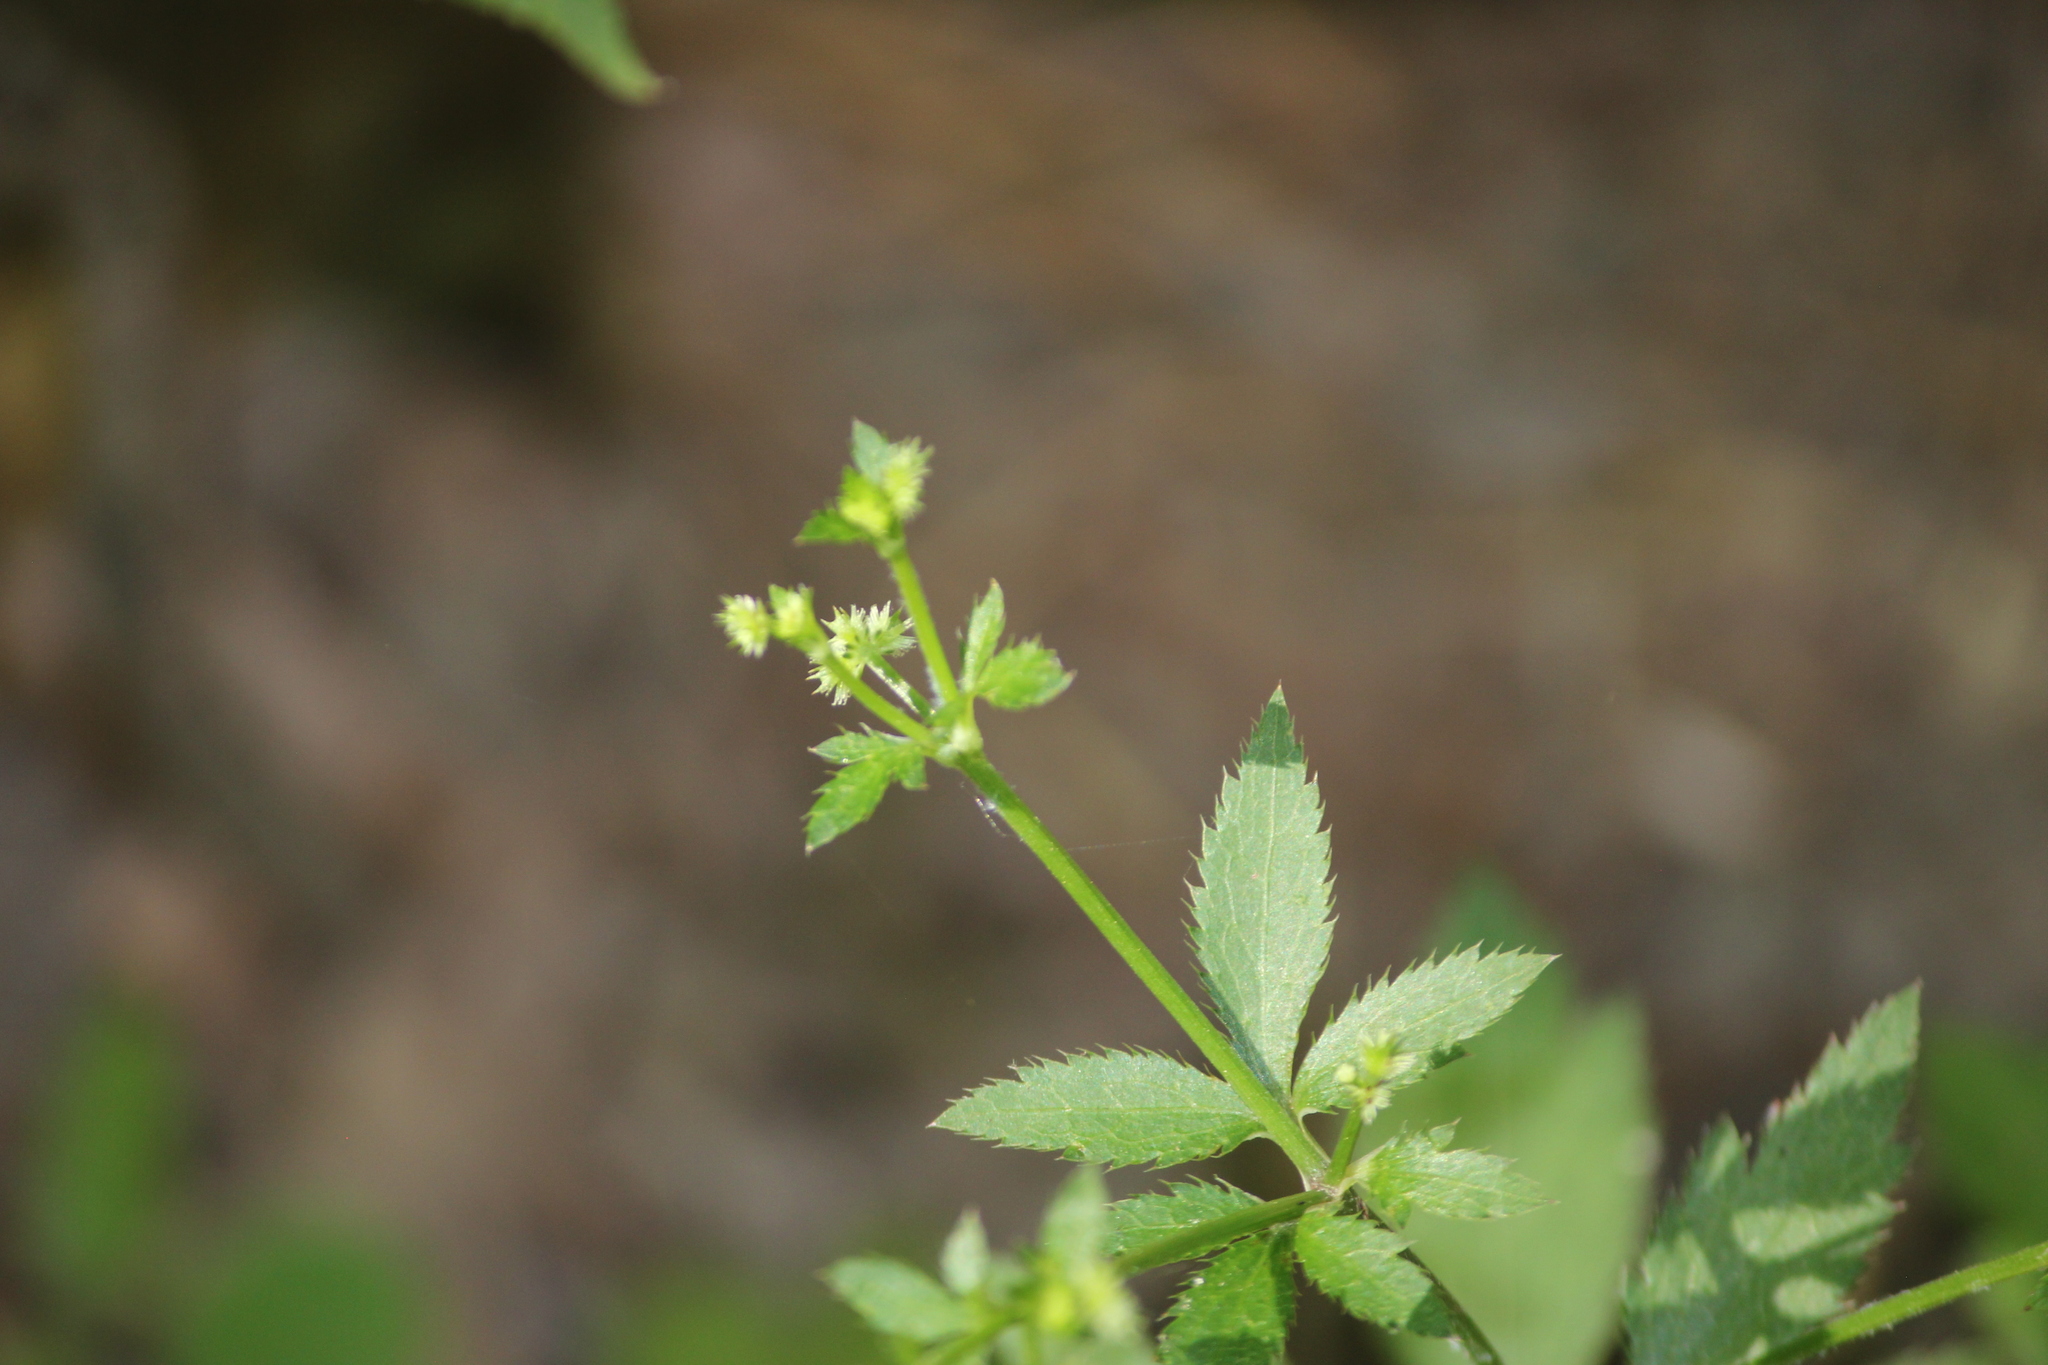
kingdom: Plantae
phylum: Tracheophyta
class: Magnoliopsida
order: Apiales
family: Apiaceae
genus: Sanicula
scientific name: Sanicula canadensis
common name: Canada sanicle
